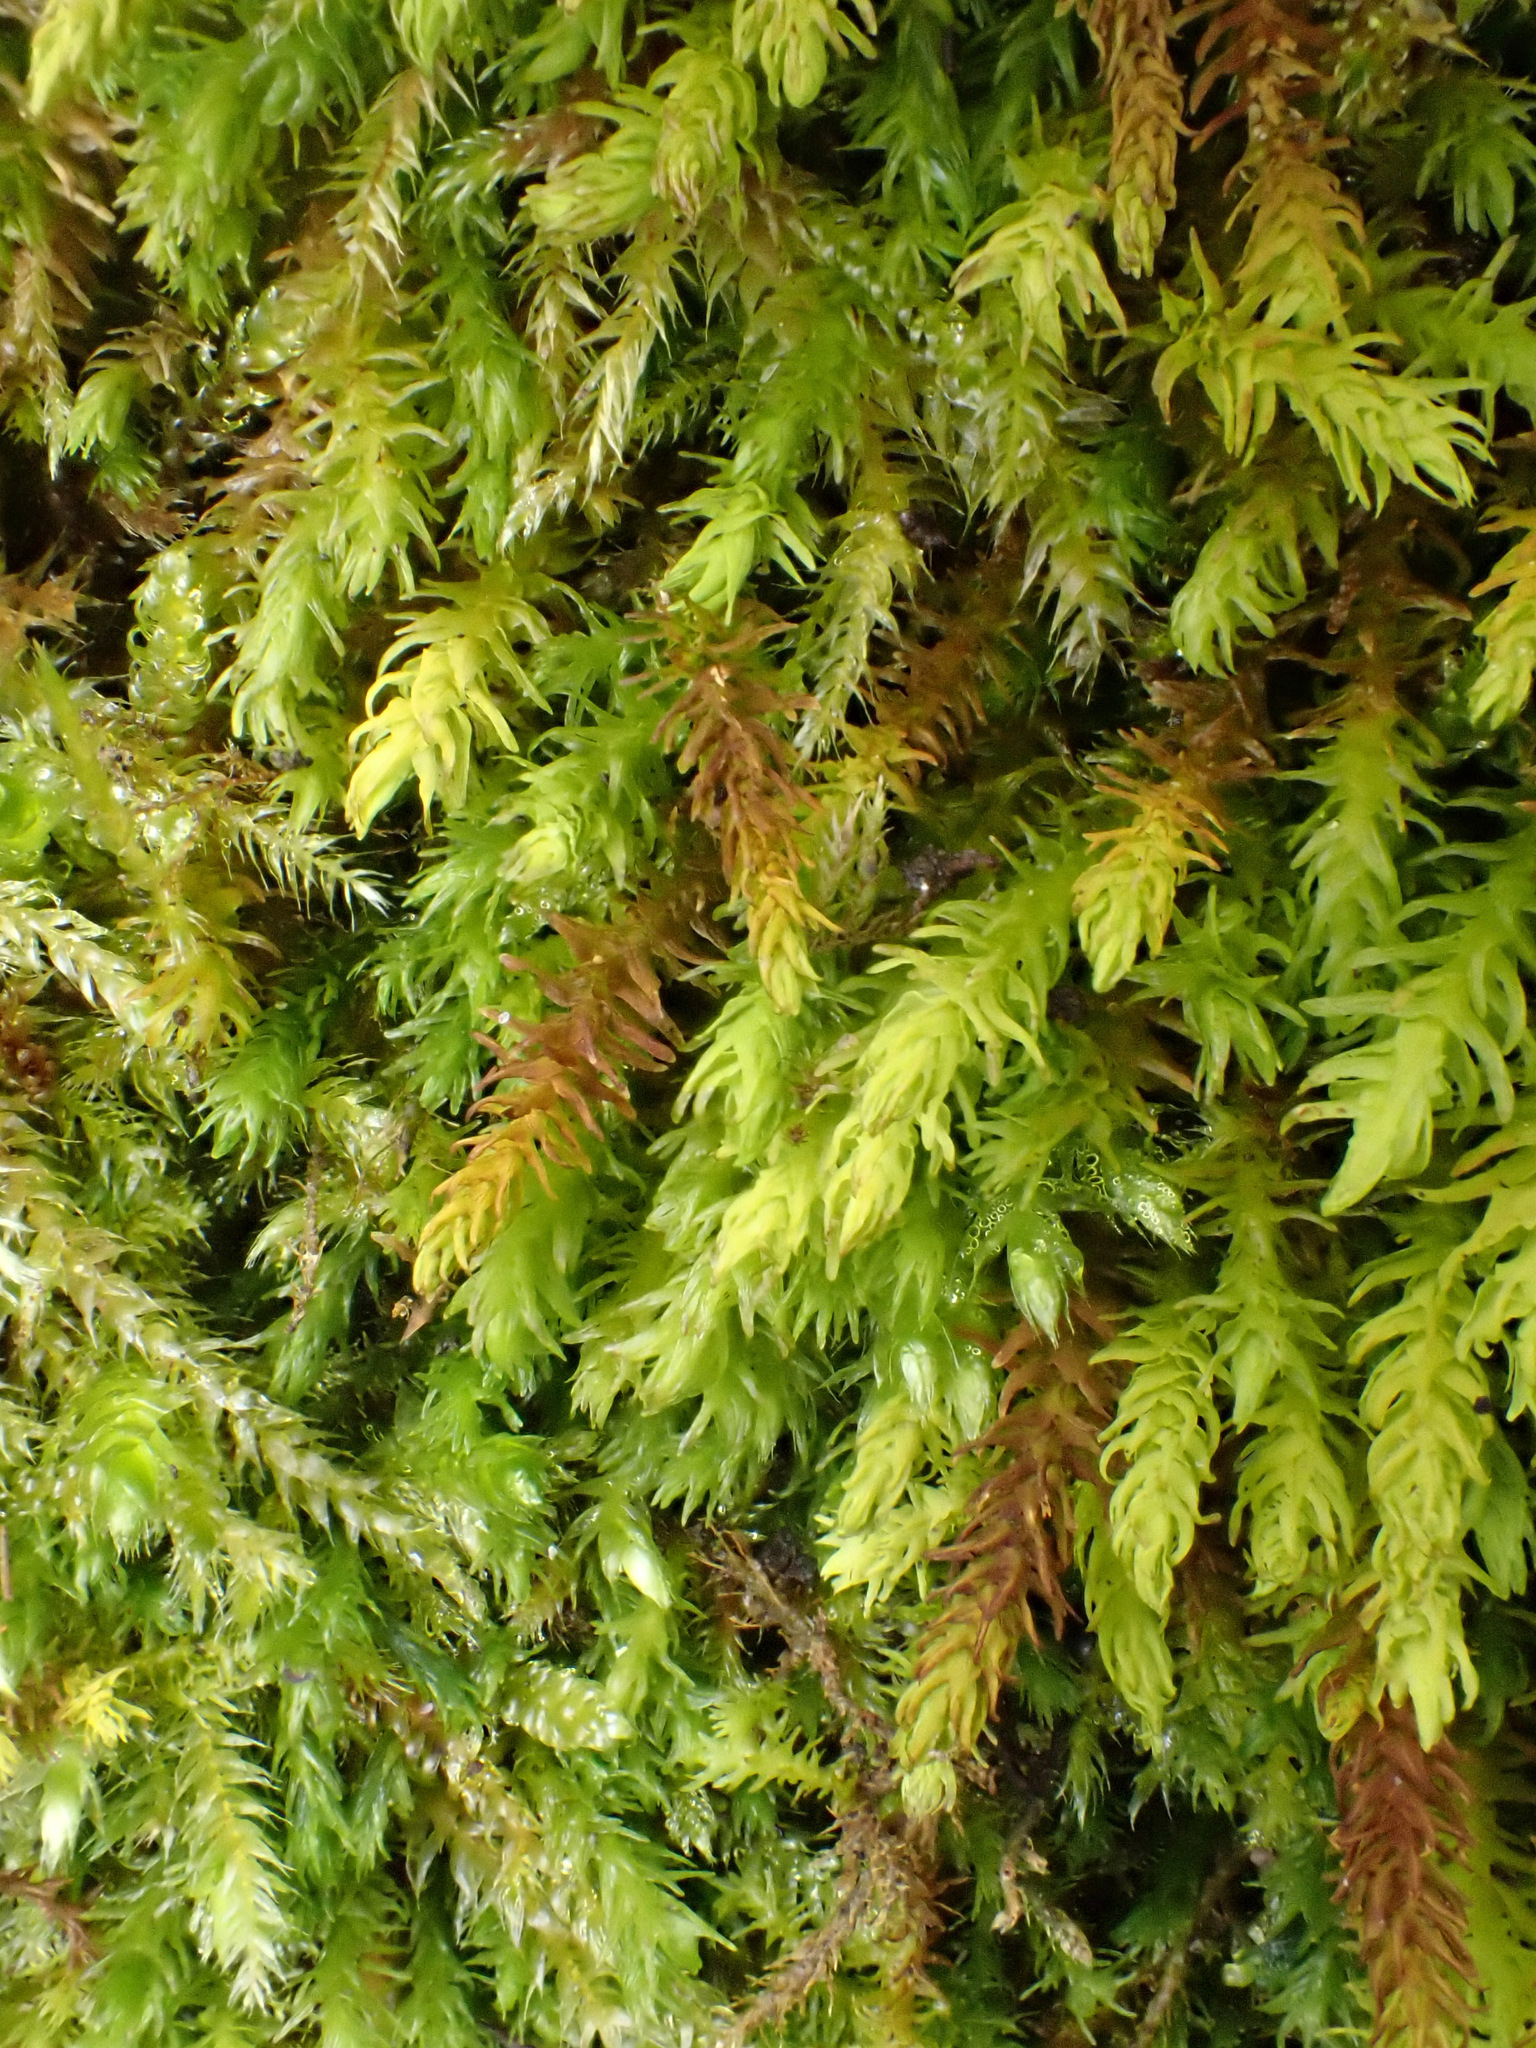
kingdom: Plantae
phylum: Bryophyta
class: Bryopsida
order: Hypnales
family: Anomodontaceae
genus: Anomodon
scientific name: Anomodon viticulosus
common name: Tall anomodon
